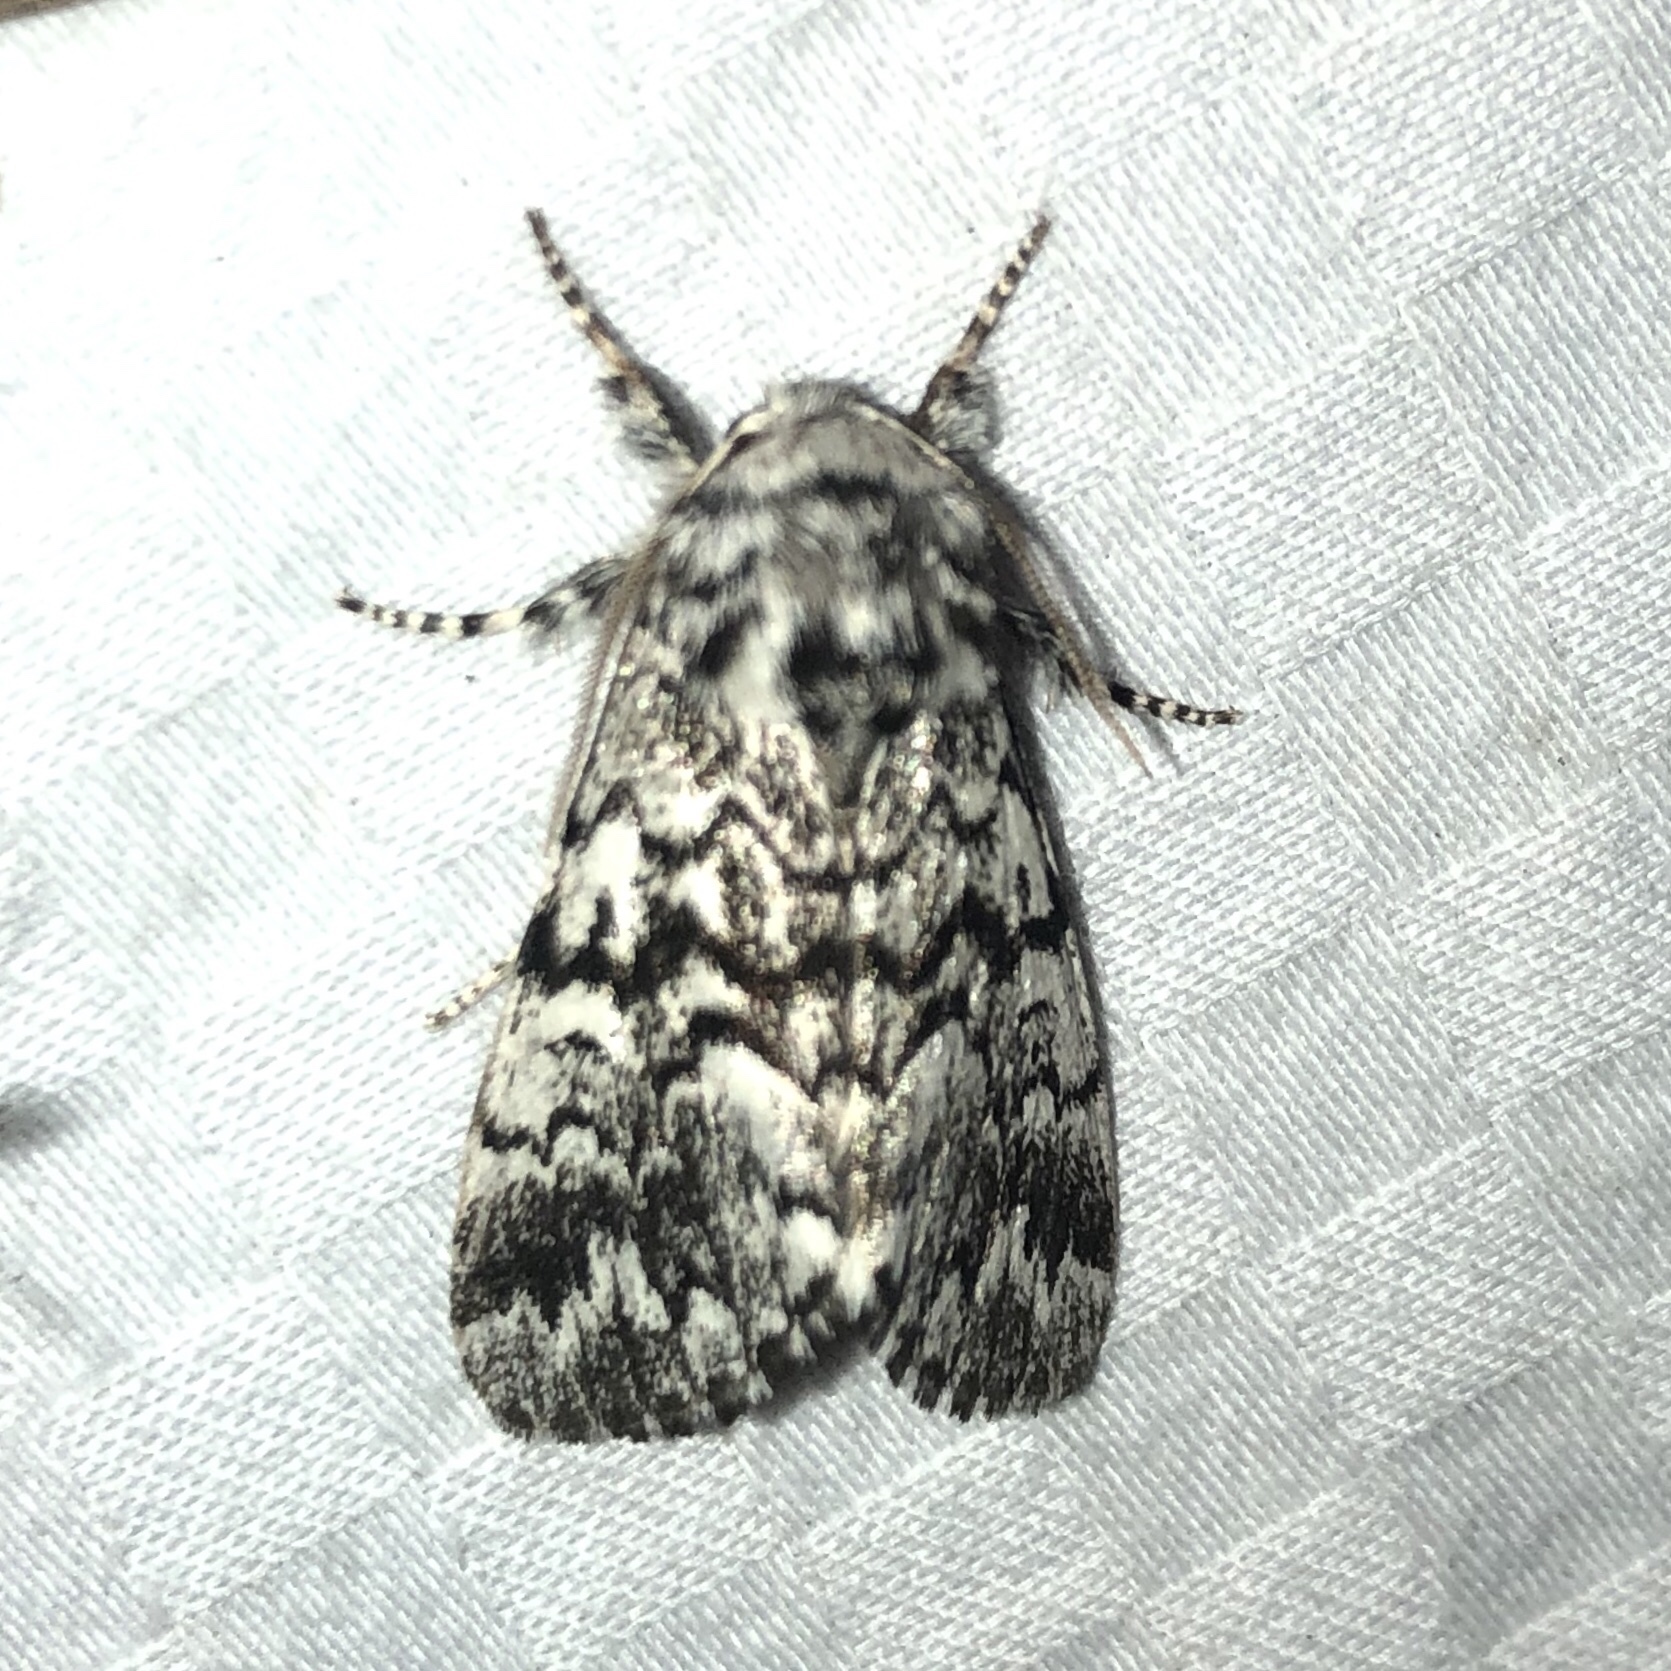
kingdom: Animalia
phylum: Arthropoda
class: Insecta
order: Lepidoptera
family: Noctuidae
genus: Panthea
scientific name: Panthea acronyctoides
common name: Black zigzag moth
